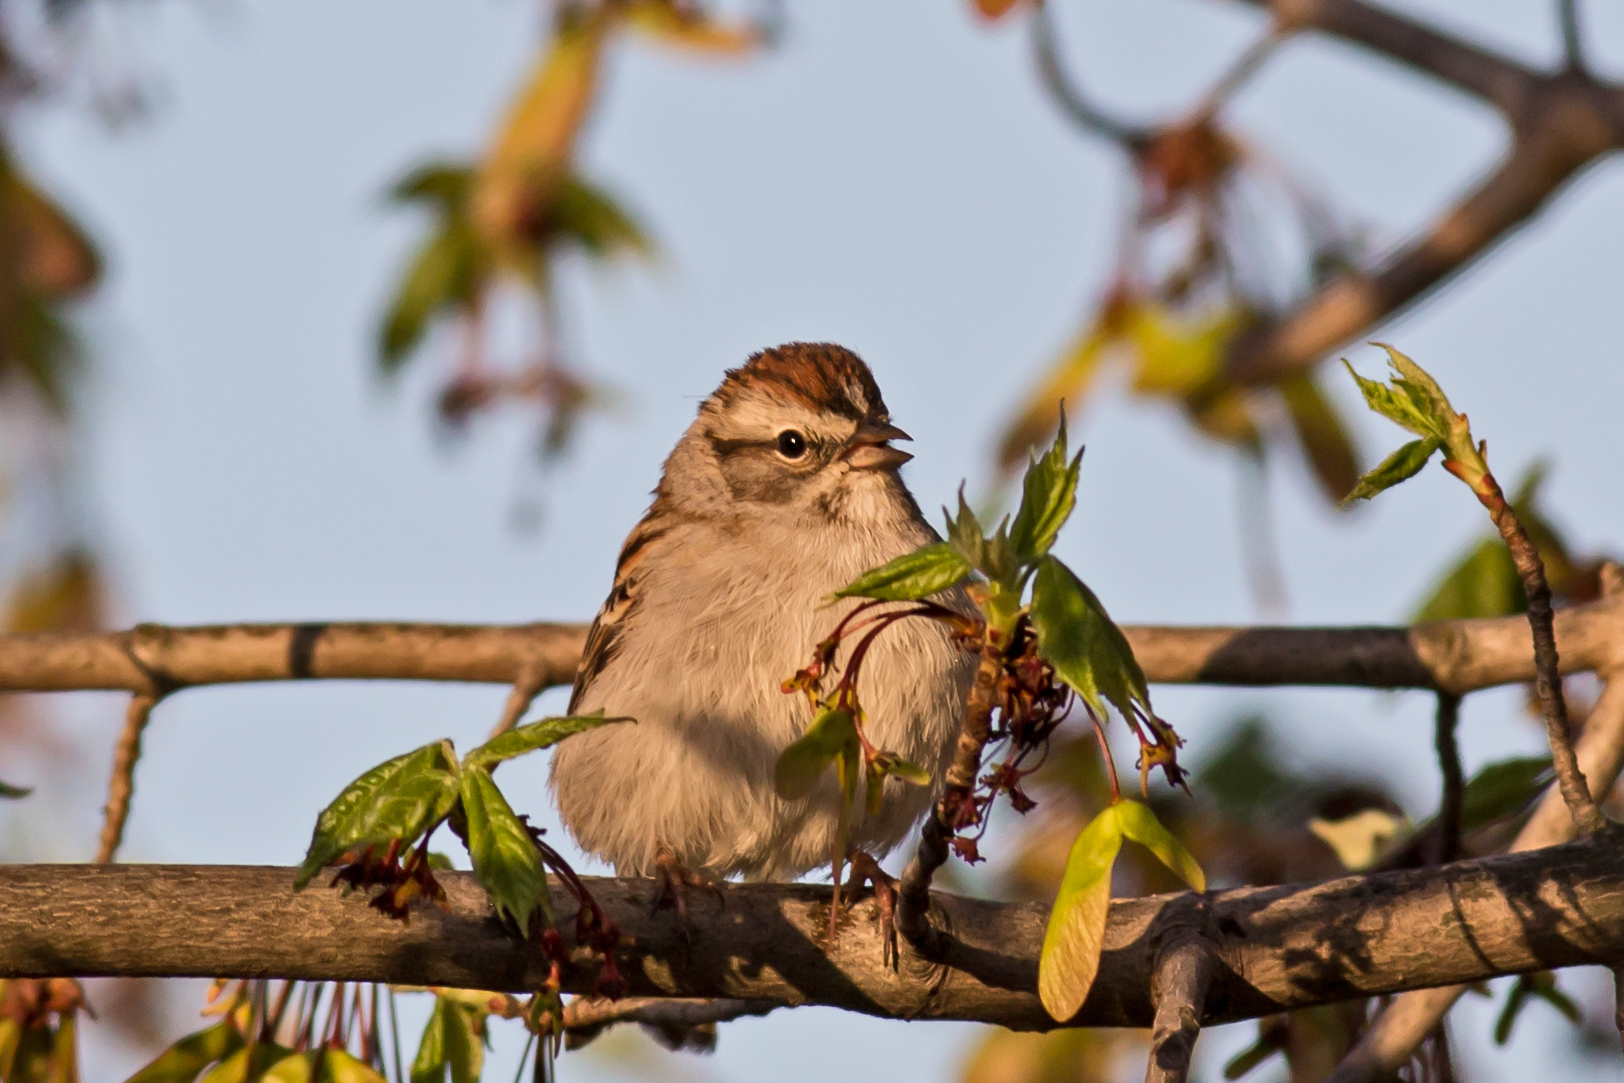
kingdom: Animalia
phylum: Chordata
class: Aves
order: Passeriformes
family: Passerellidae
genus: Spizella
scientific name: Spizella passerina
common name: Chipping sparrow
